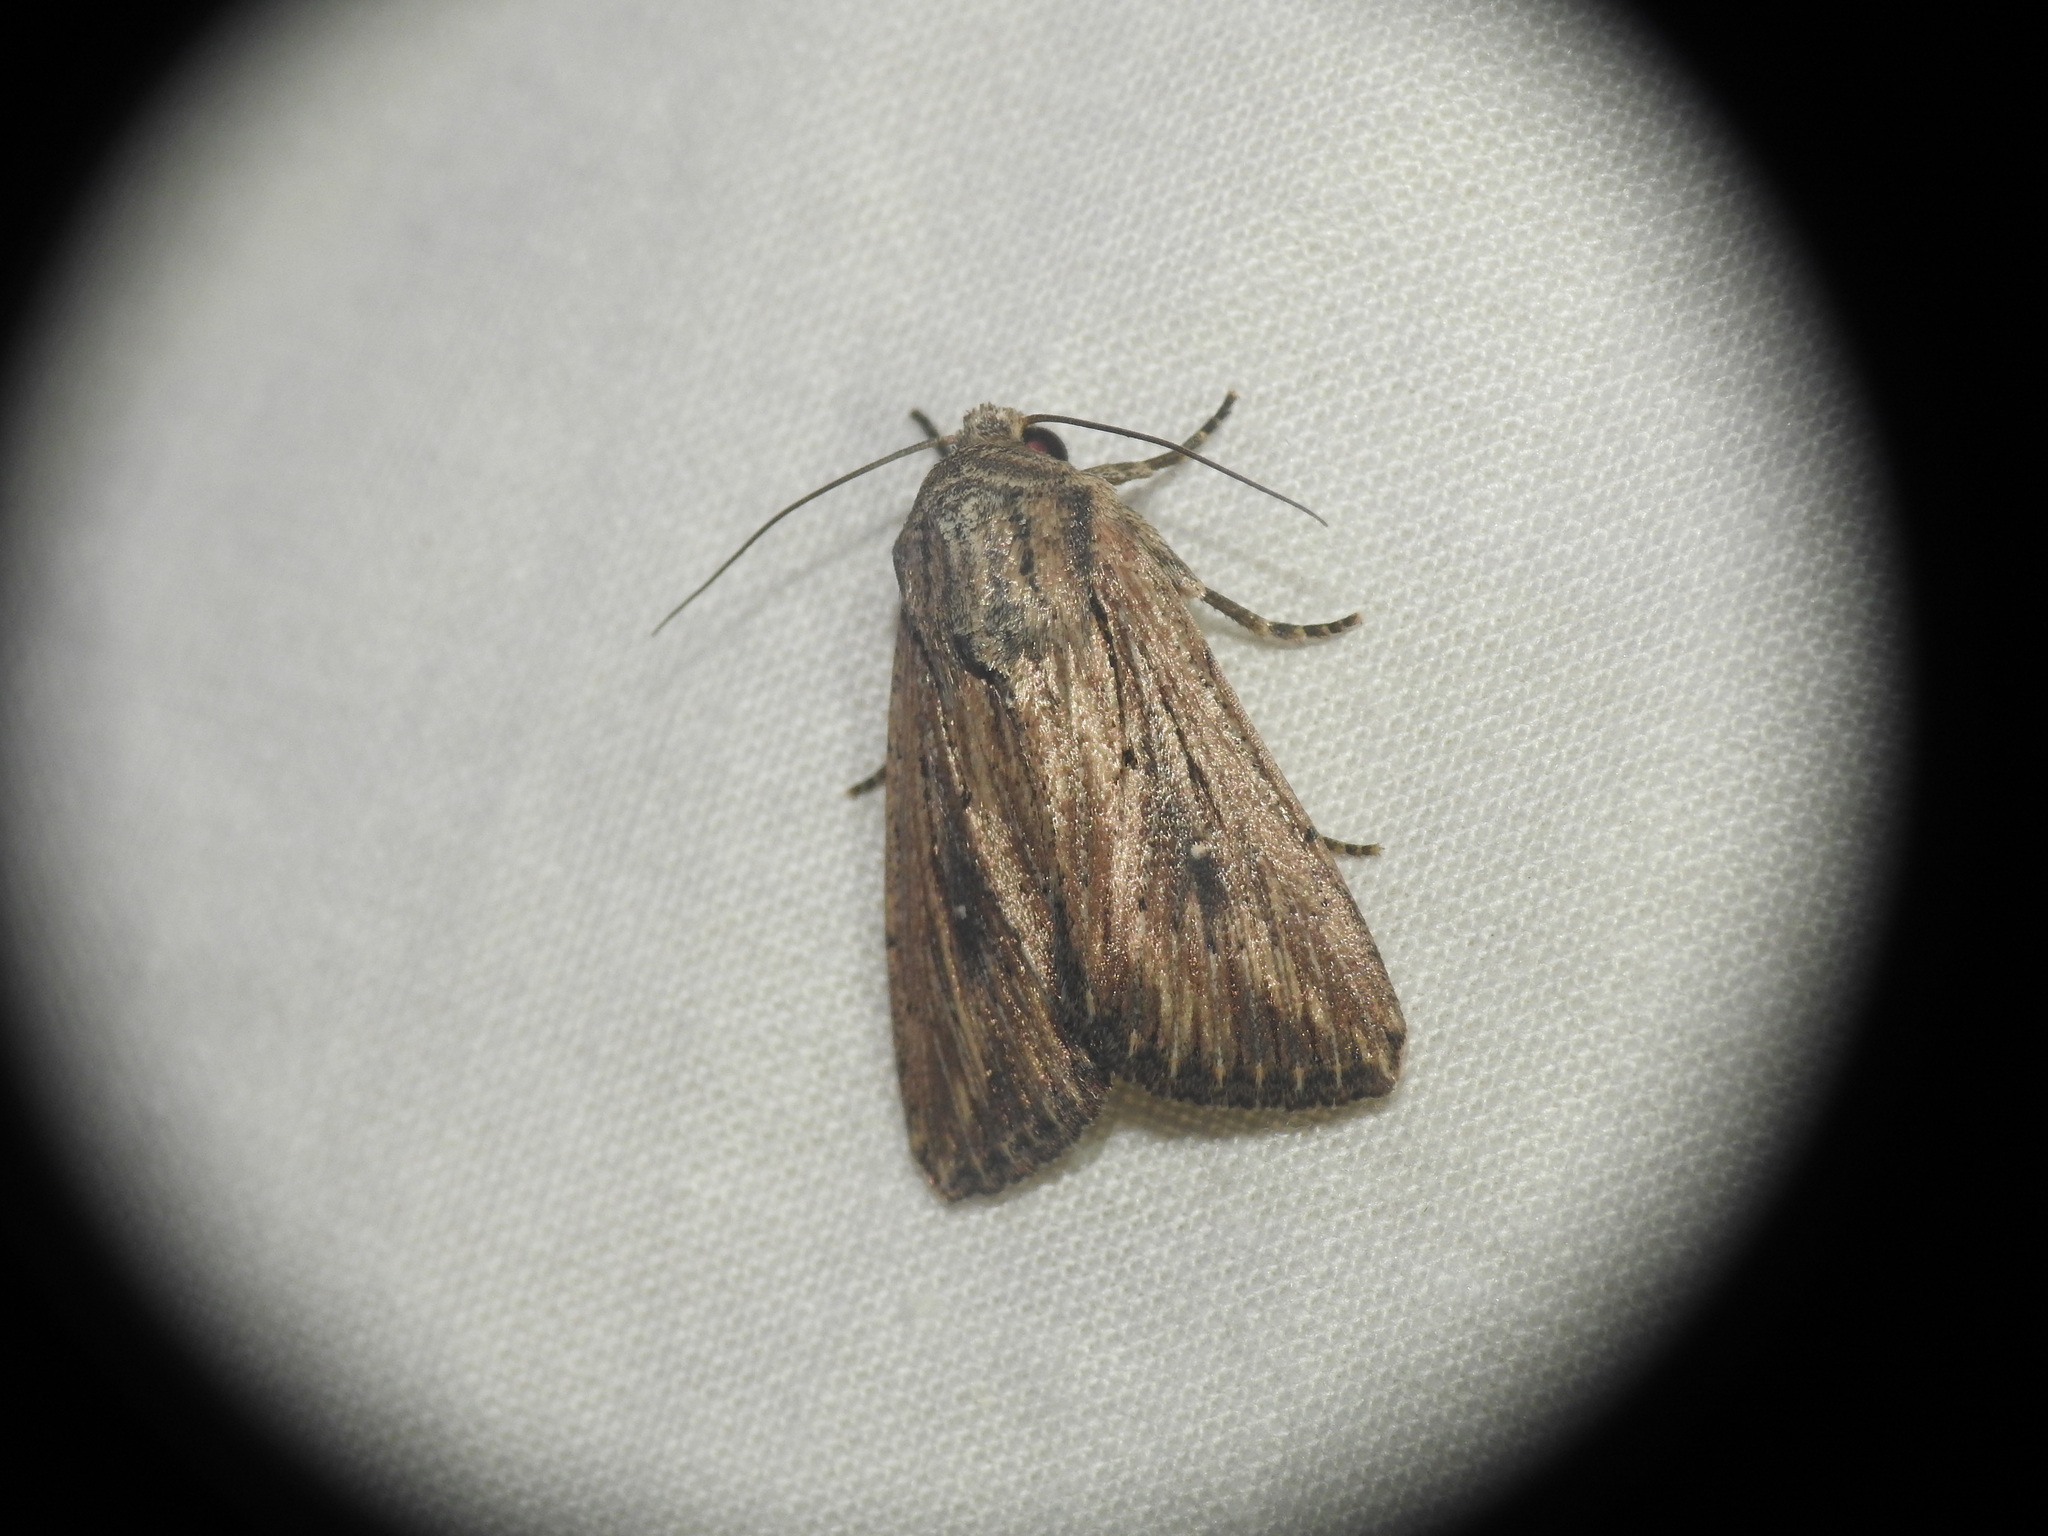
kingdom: Animalia
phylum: Arthropoda
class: Insecta
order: Lepidoptera
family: Noctuidae
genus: Leucania
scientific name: Leucania putrescens
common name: Devonshire wainscot
